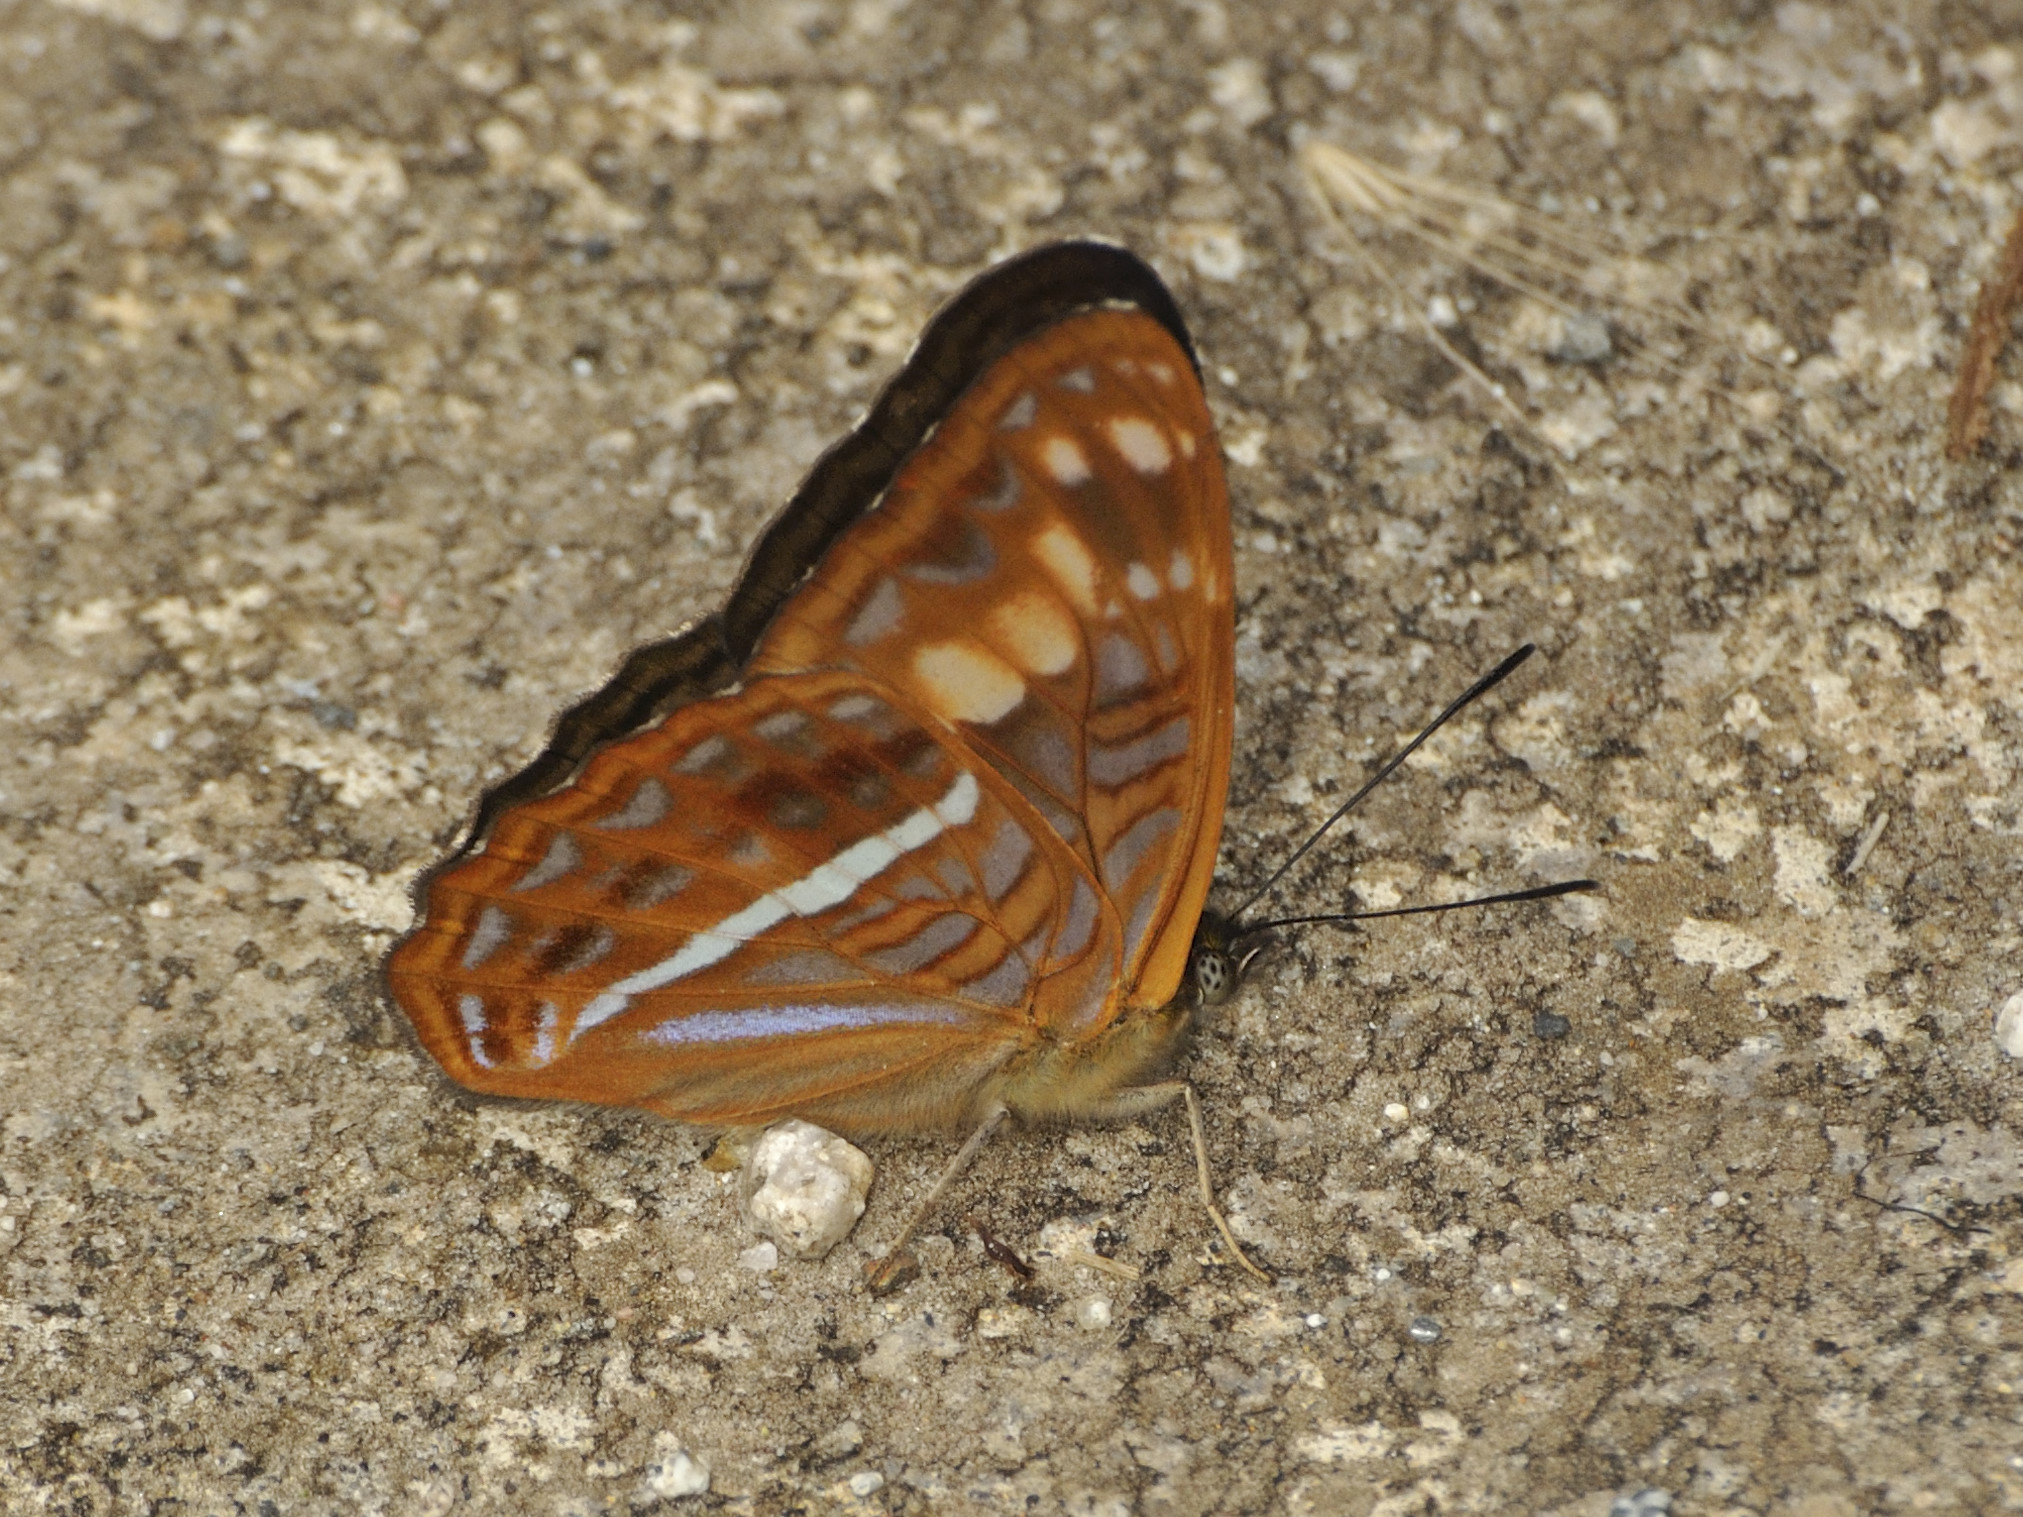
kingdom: Animalia
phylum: Arthropoda
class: Insecta
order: Lepidoptera
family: Nymphalidae
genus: Limenitis
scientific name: Limenitis olynthia
